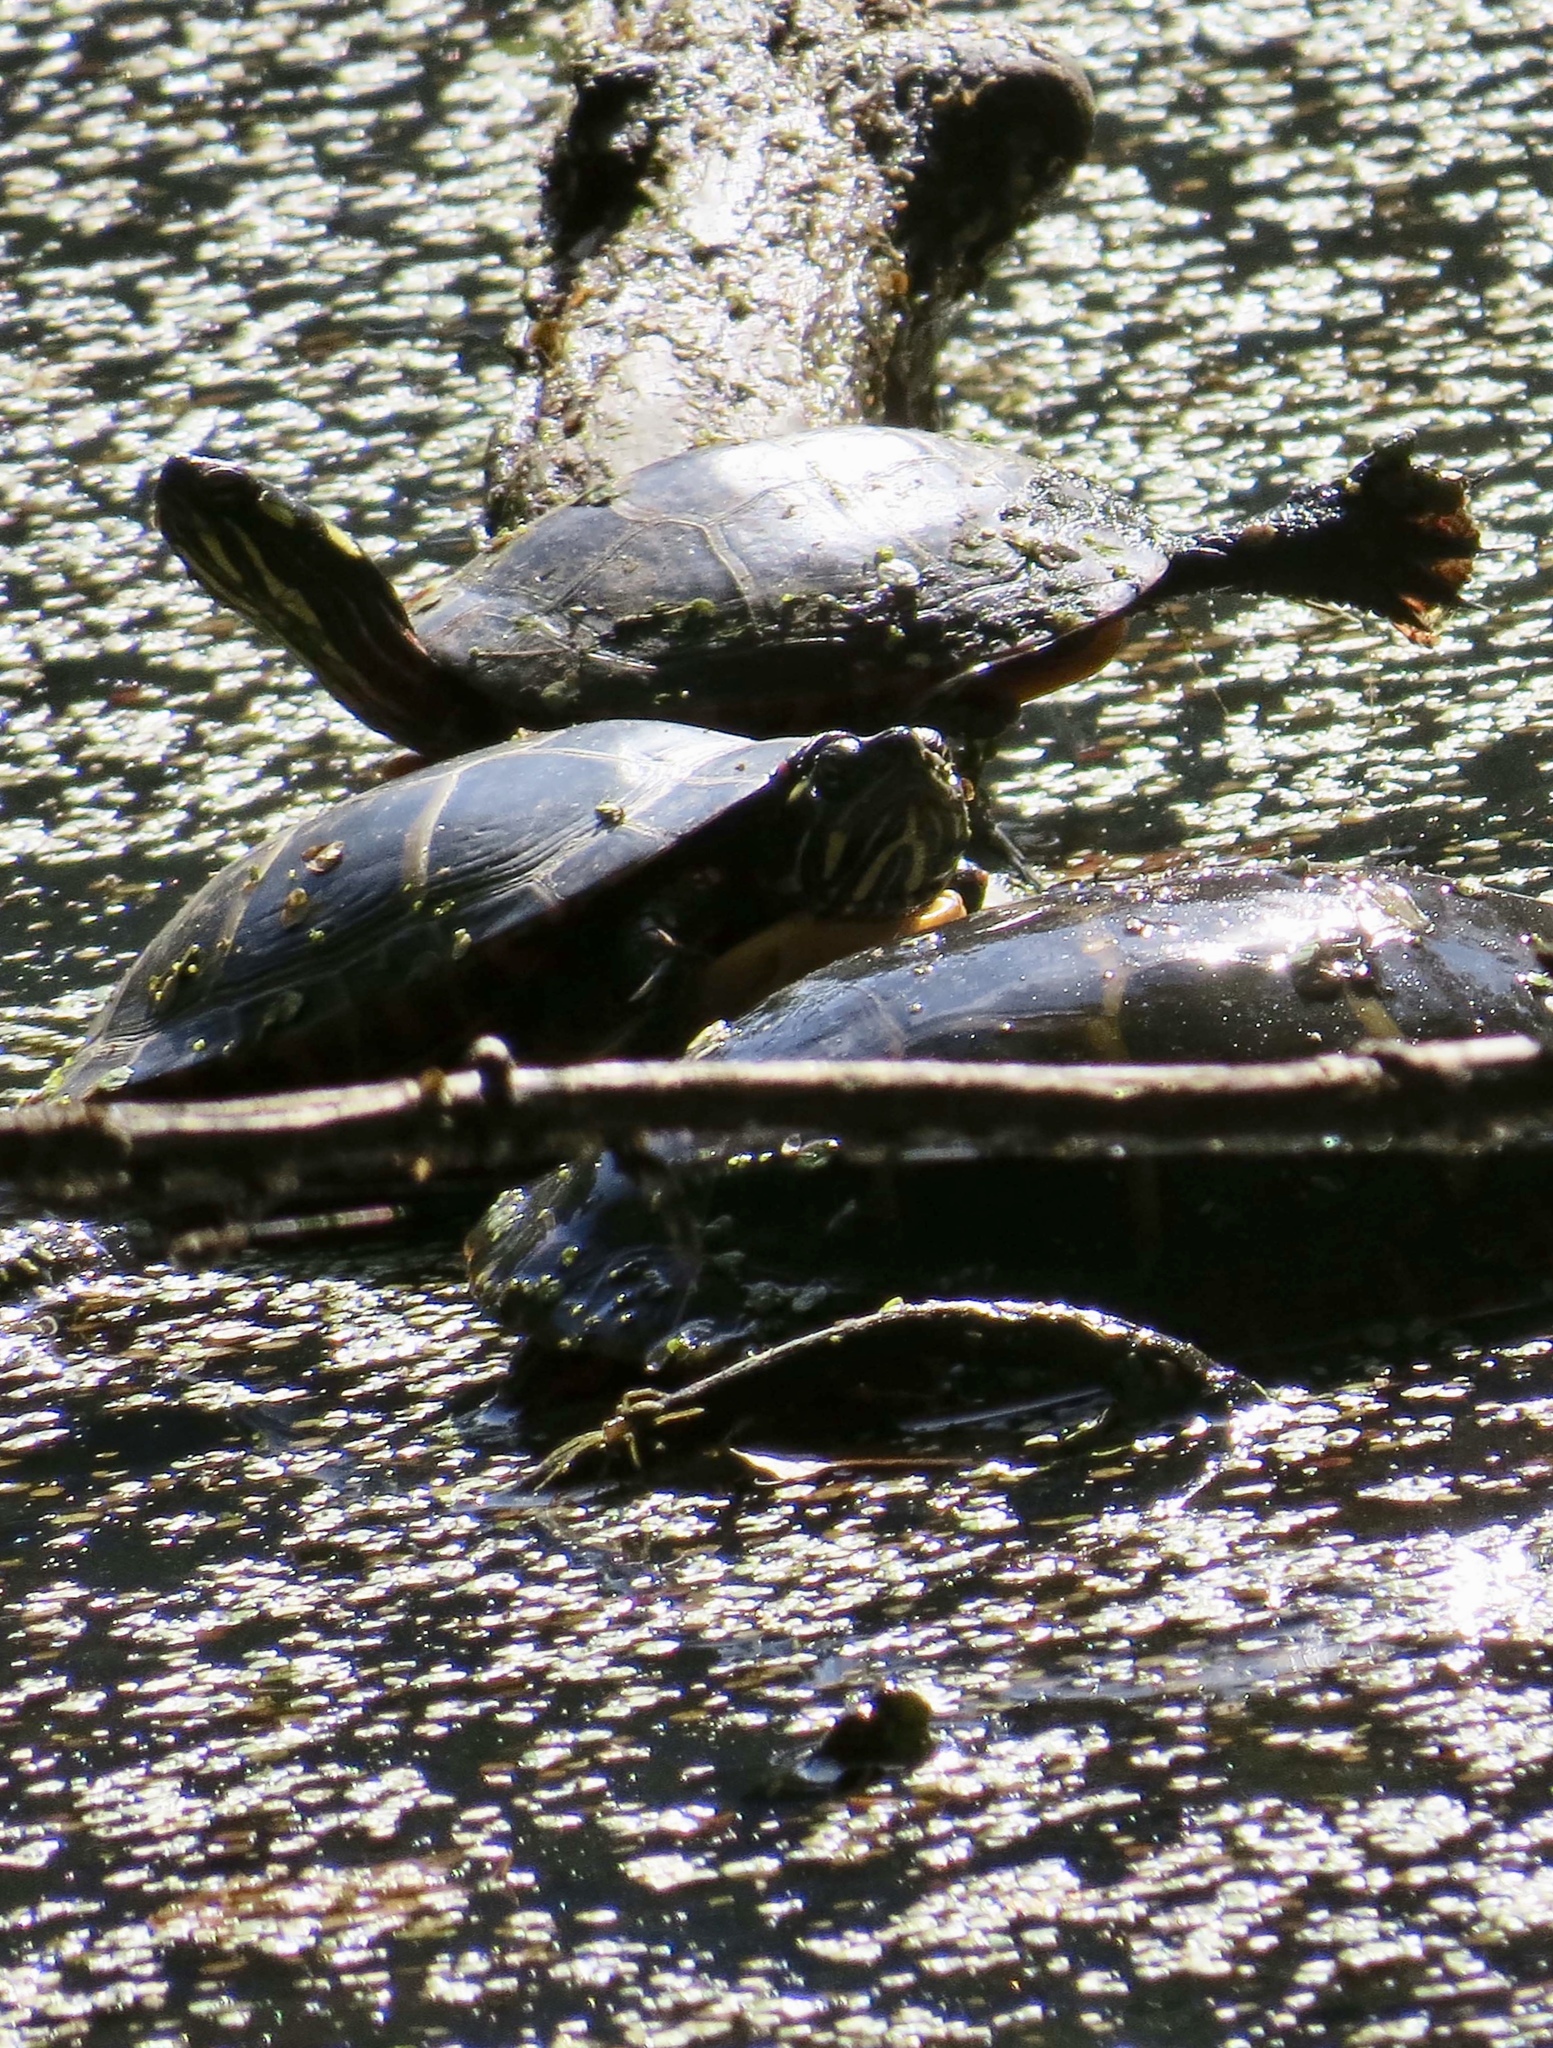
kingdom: Animalia
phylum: Chordata
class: Testudines
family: Emydidae
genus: Chrysemys
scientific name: Chrysemys picta
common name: Painted turtle
